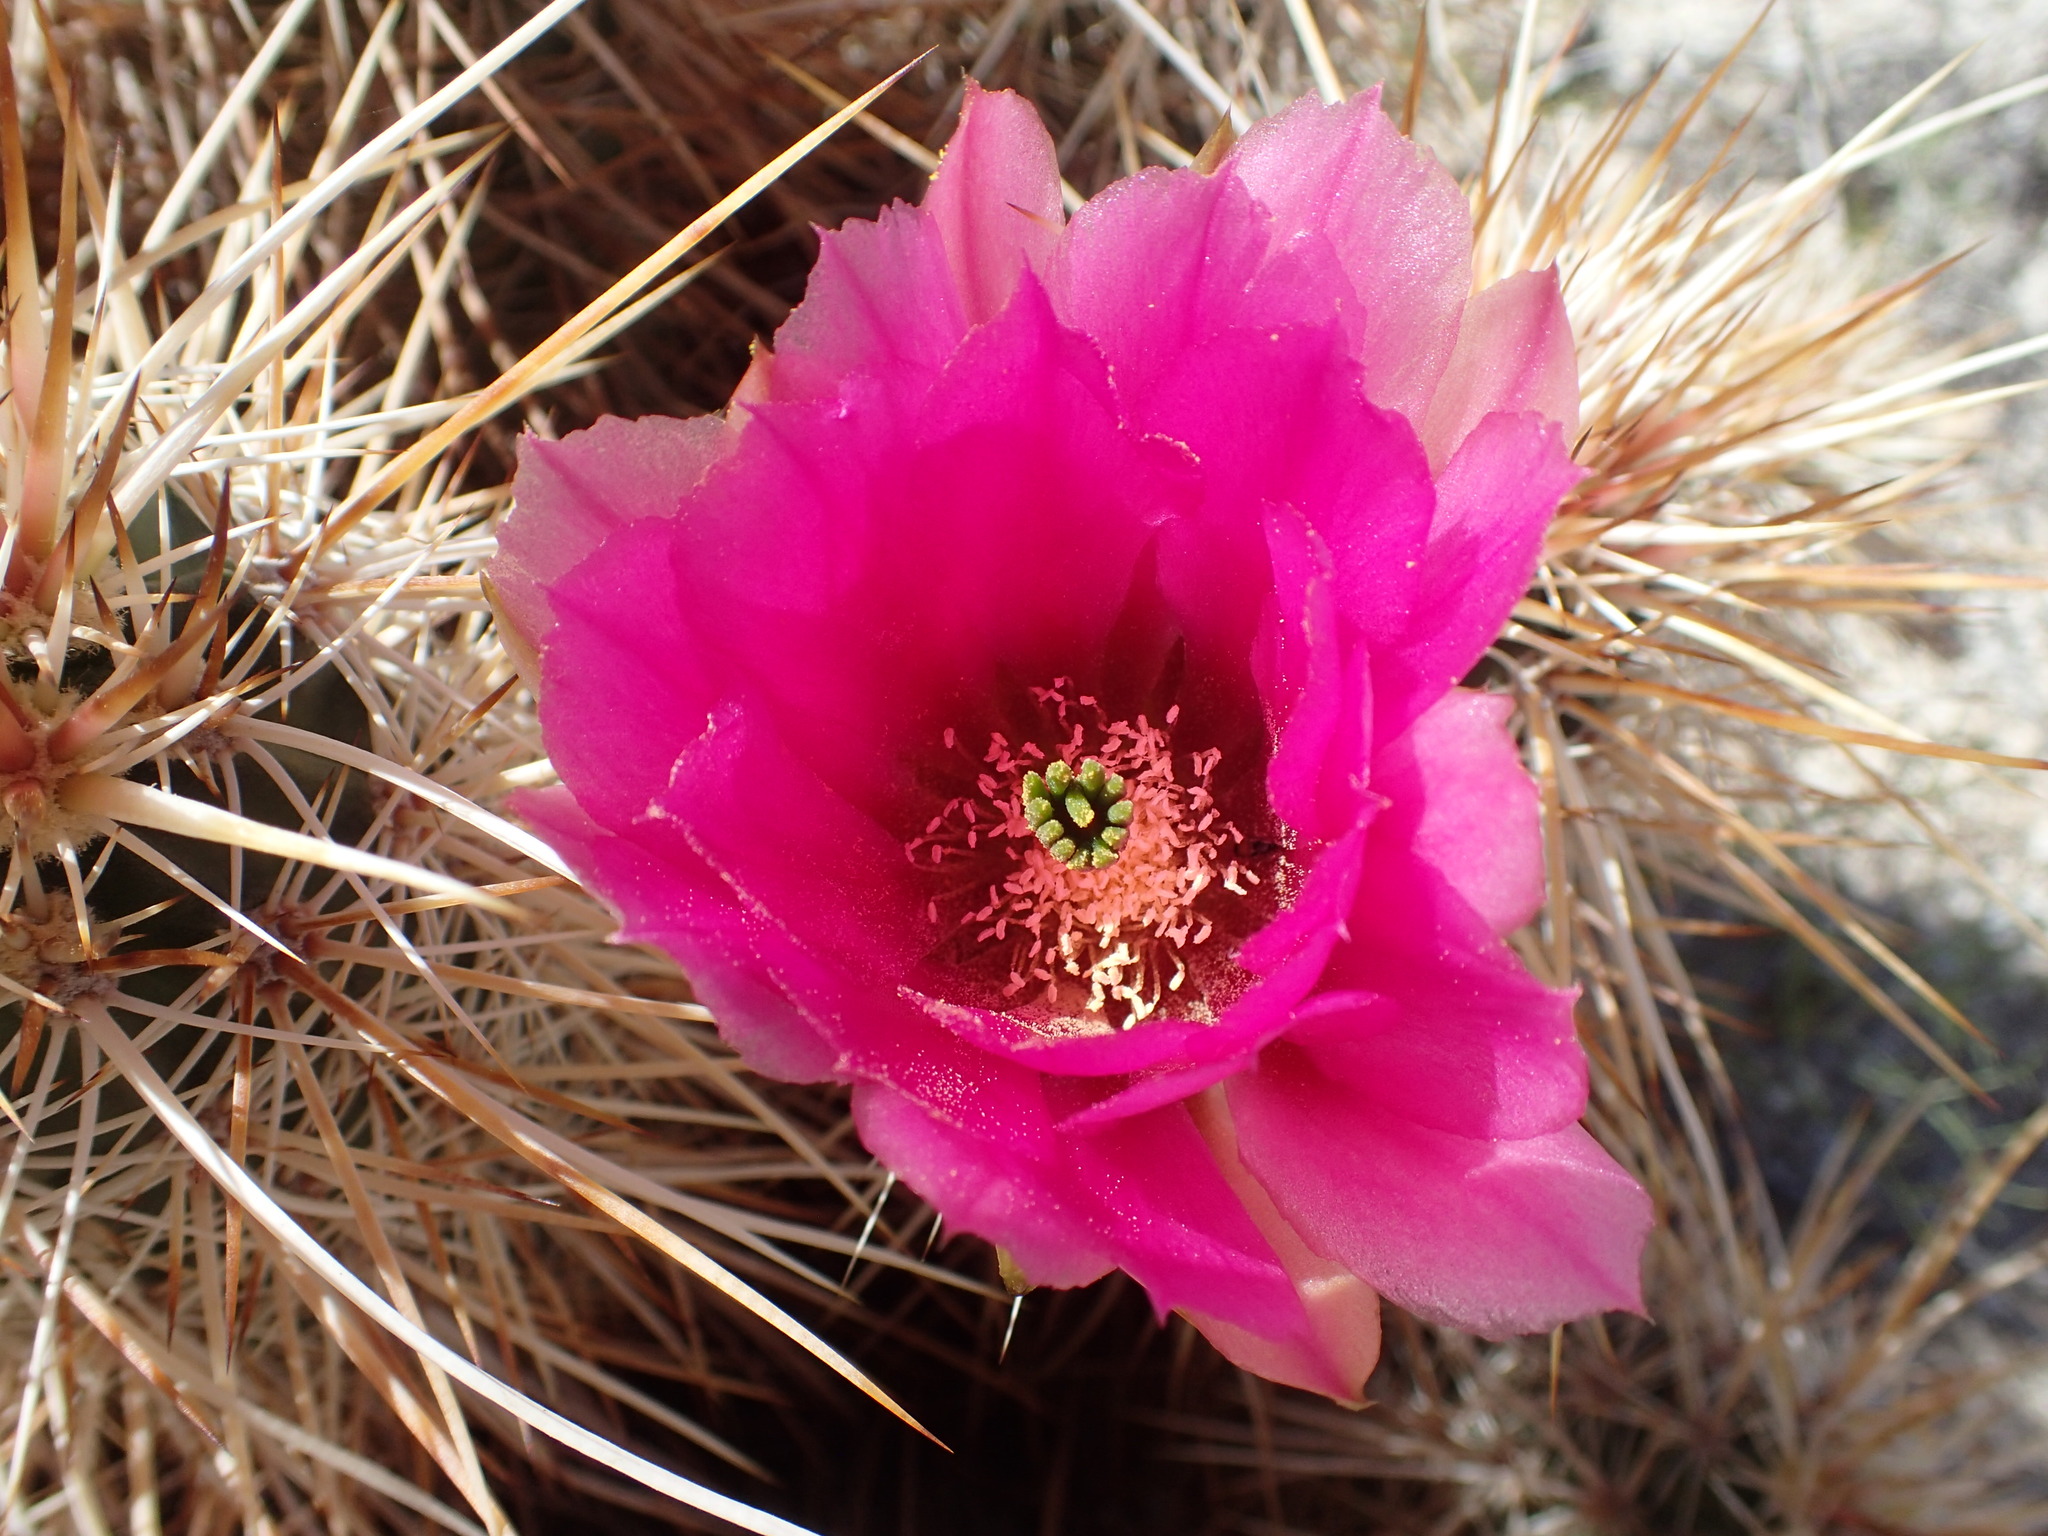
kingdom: Plantae
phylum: Tracheophyta
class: Magnoliopsida
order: Caryophyllales
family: Cactaceae
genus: Echinocereus
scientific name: Echinocereus engelmannii
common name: Engelmann's hedgehog cactus
